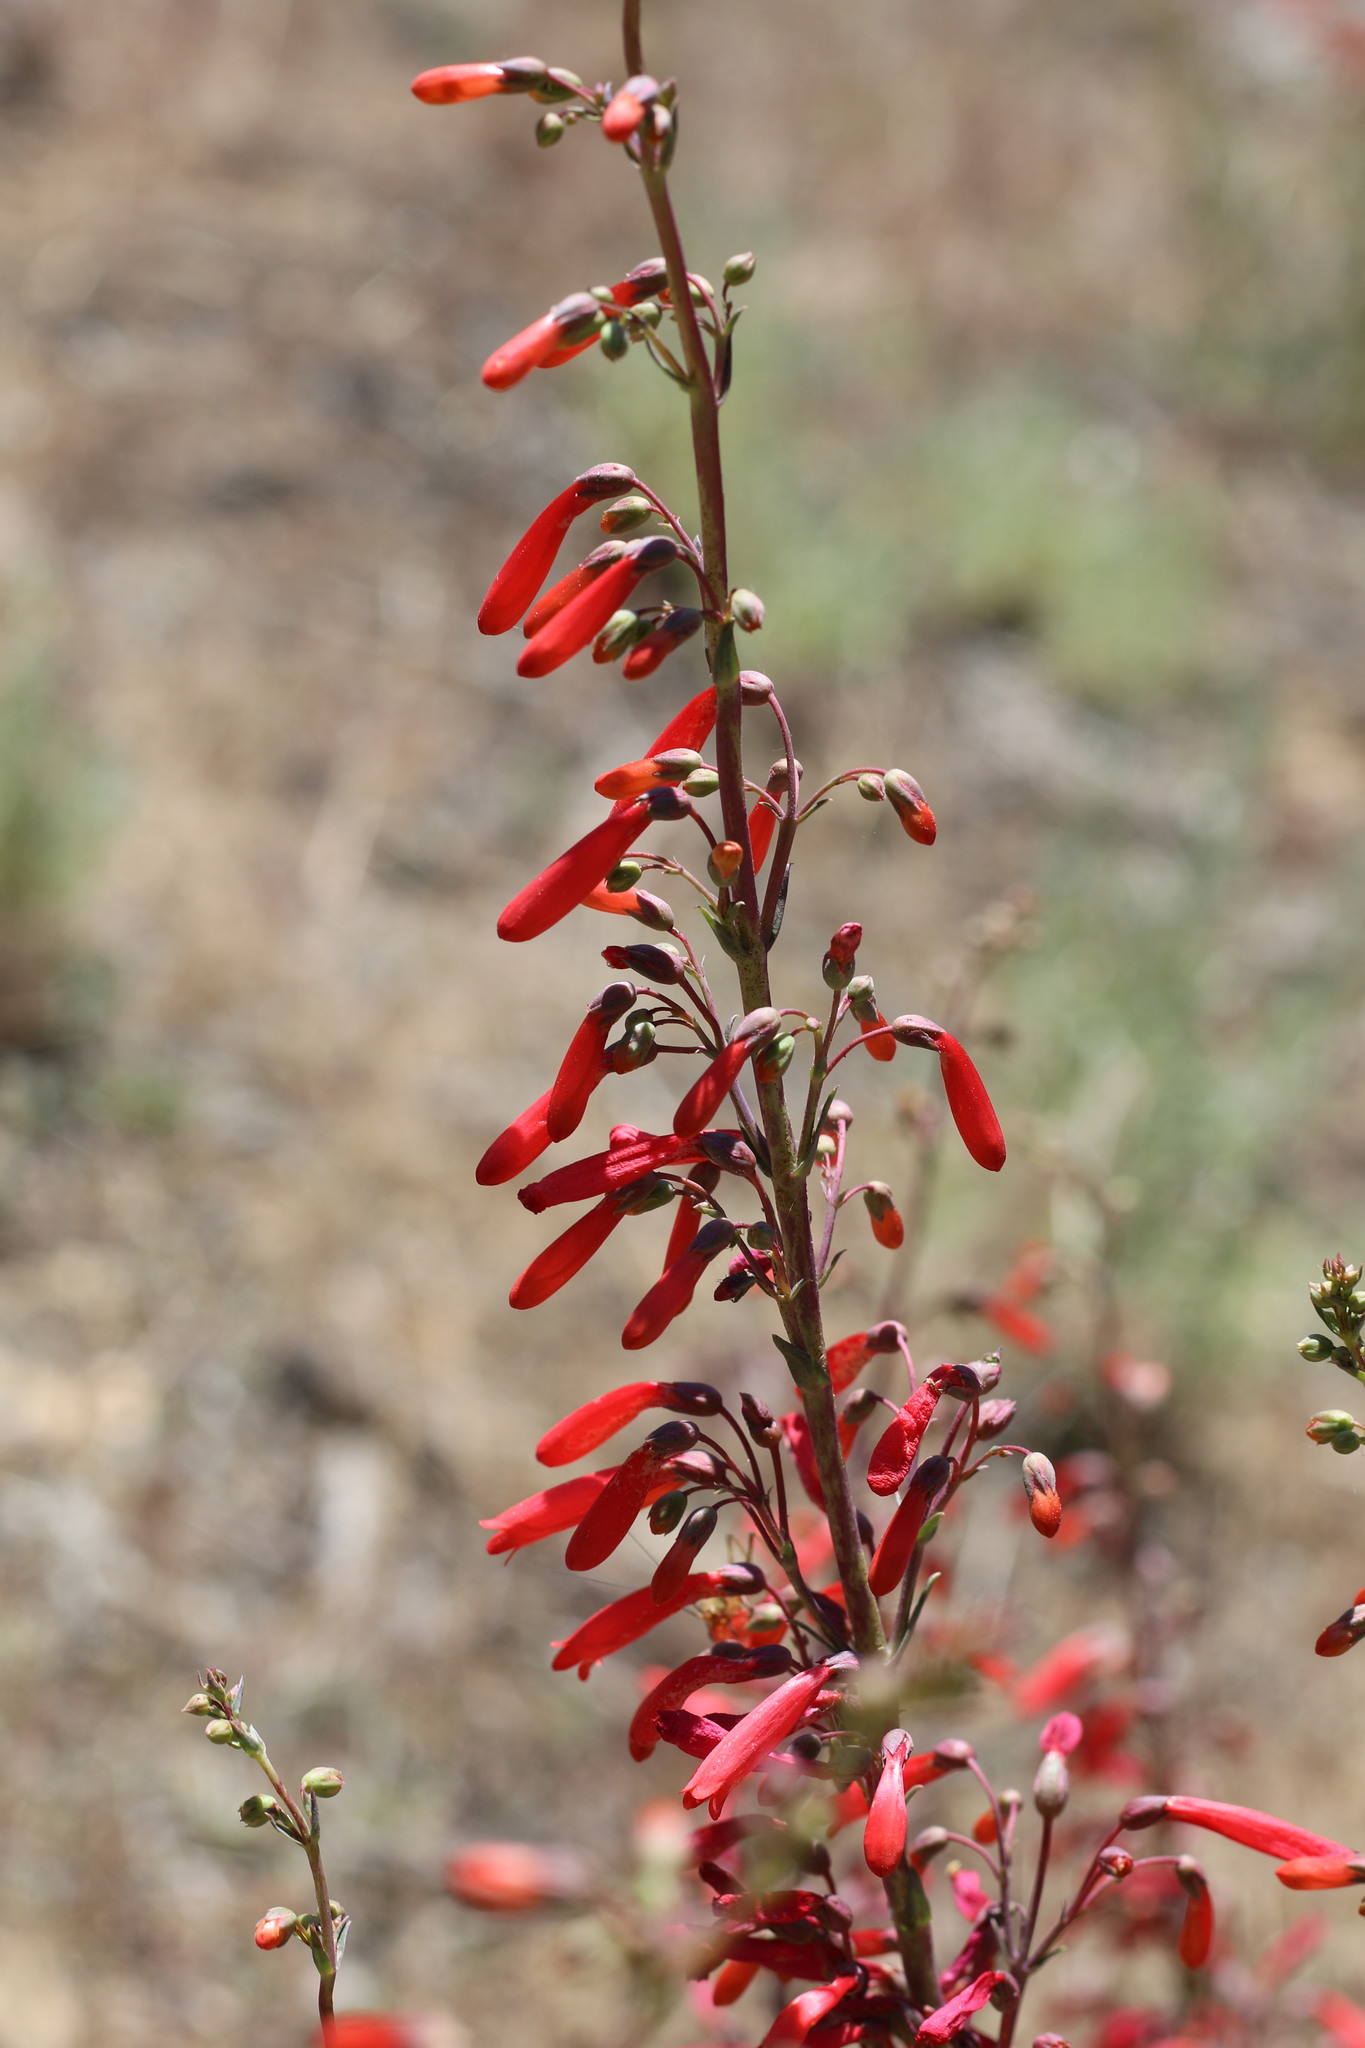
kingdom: Plantae
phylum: Tracheophyta
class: Magnoliopsida
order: Lamiales
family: Plantaginaceae
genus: Penstemon
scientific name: Penstemon centranthifolius
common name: Scarlet bugler
